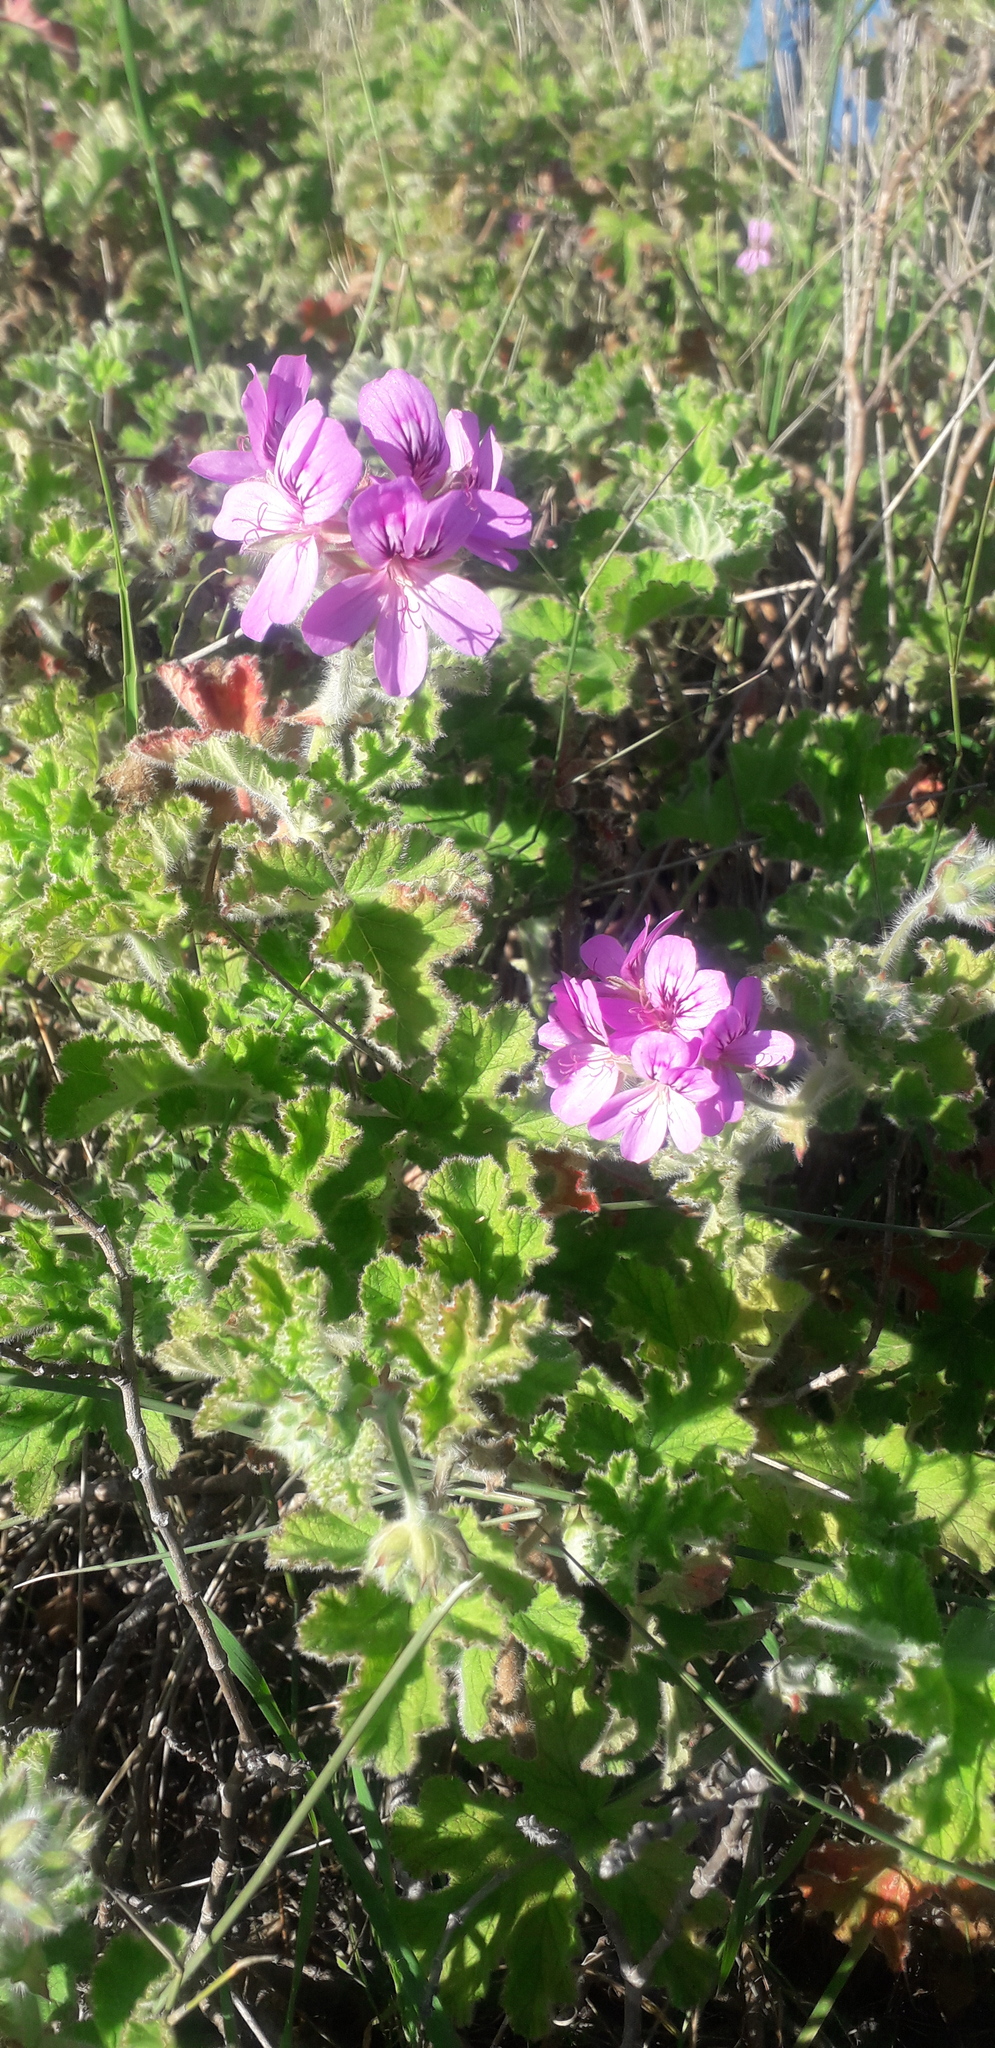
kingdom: Plantae
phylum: Tracheophyta
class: Magnoliopsida
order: Geraniales
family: Geraniaceae
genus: Pelargonium
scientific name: Pelargonium capitatum
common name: Rose scented geranium
